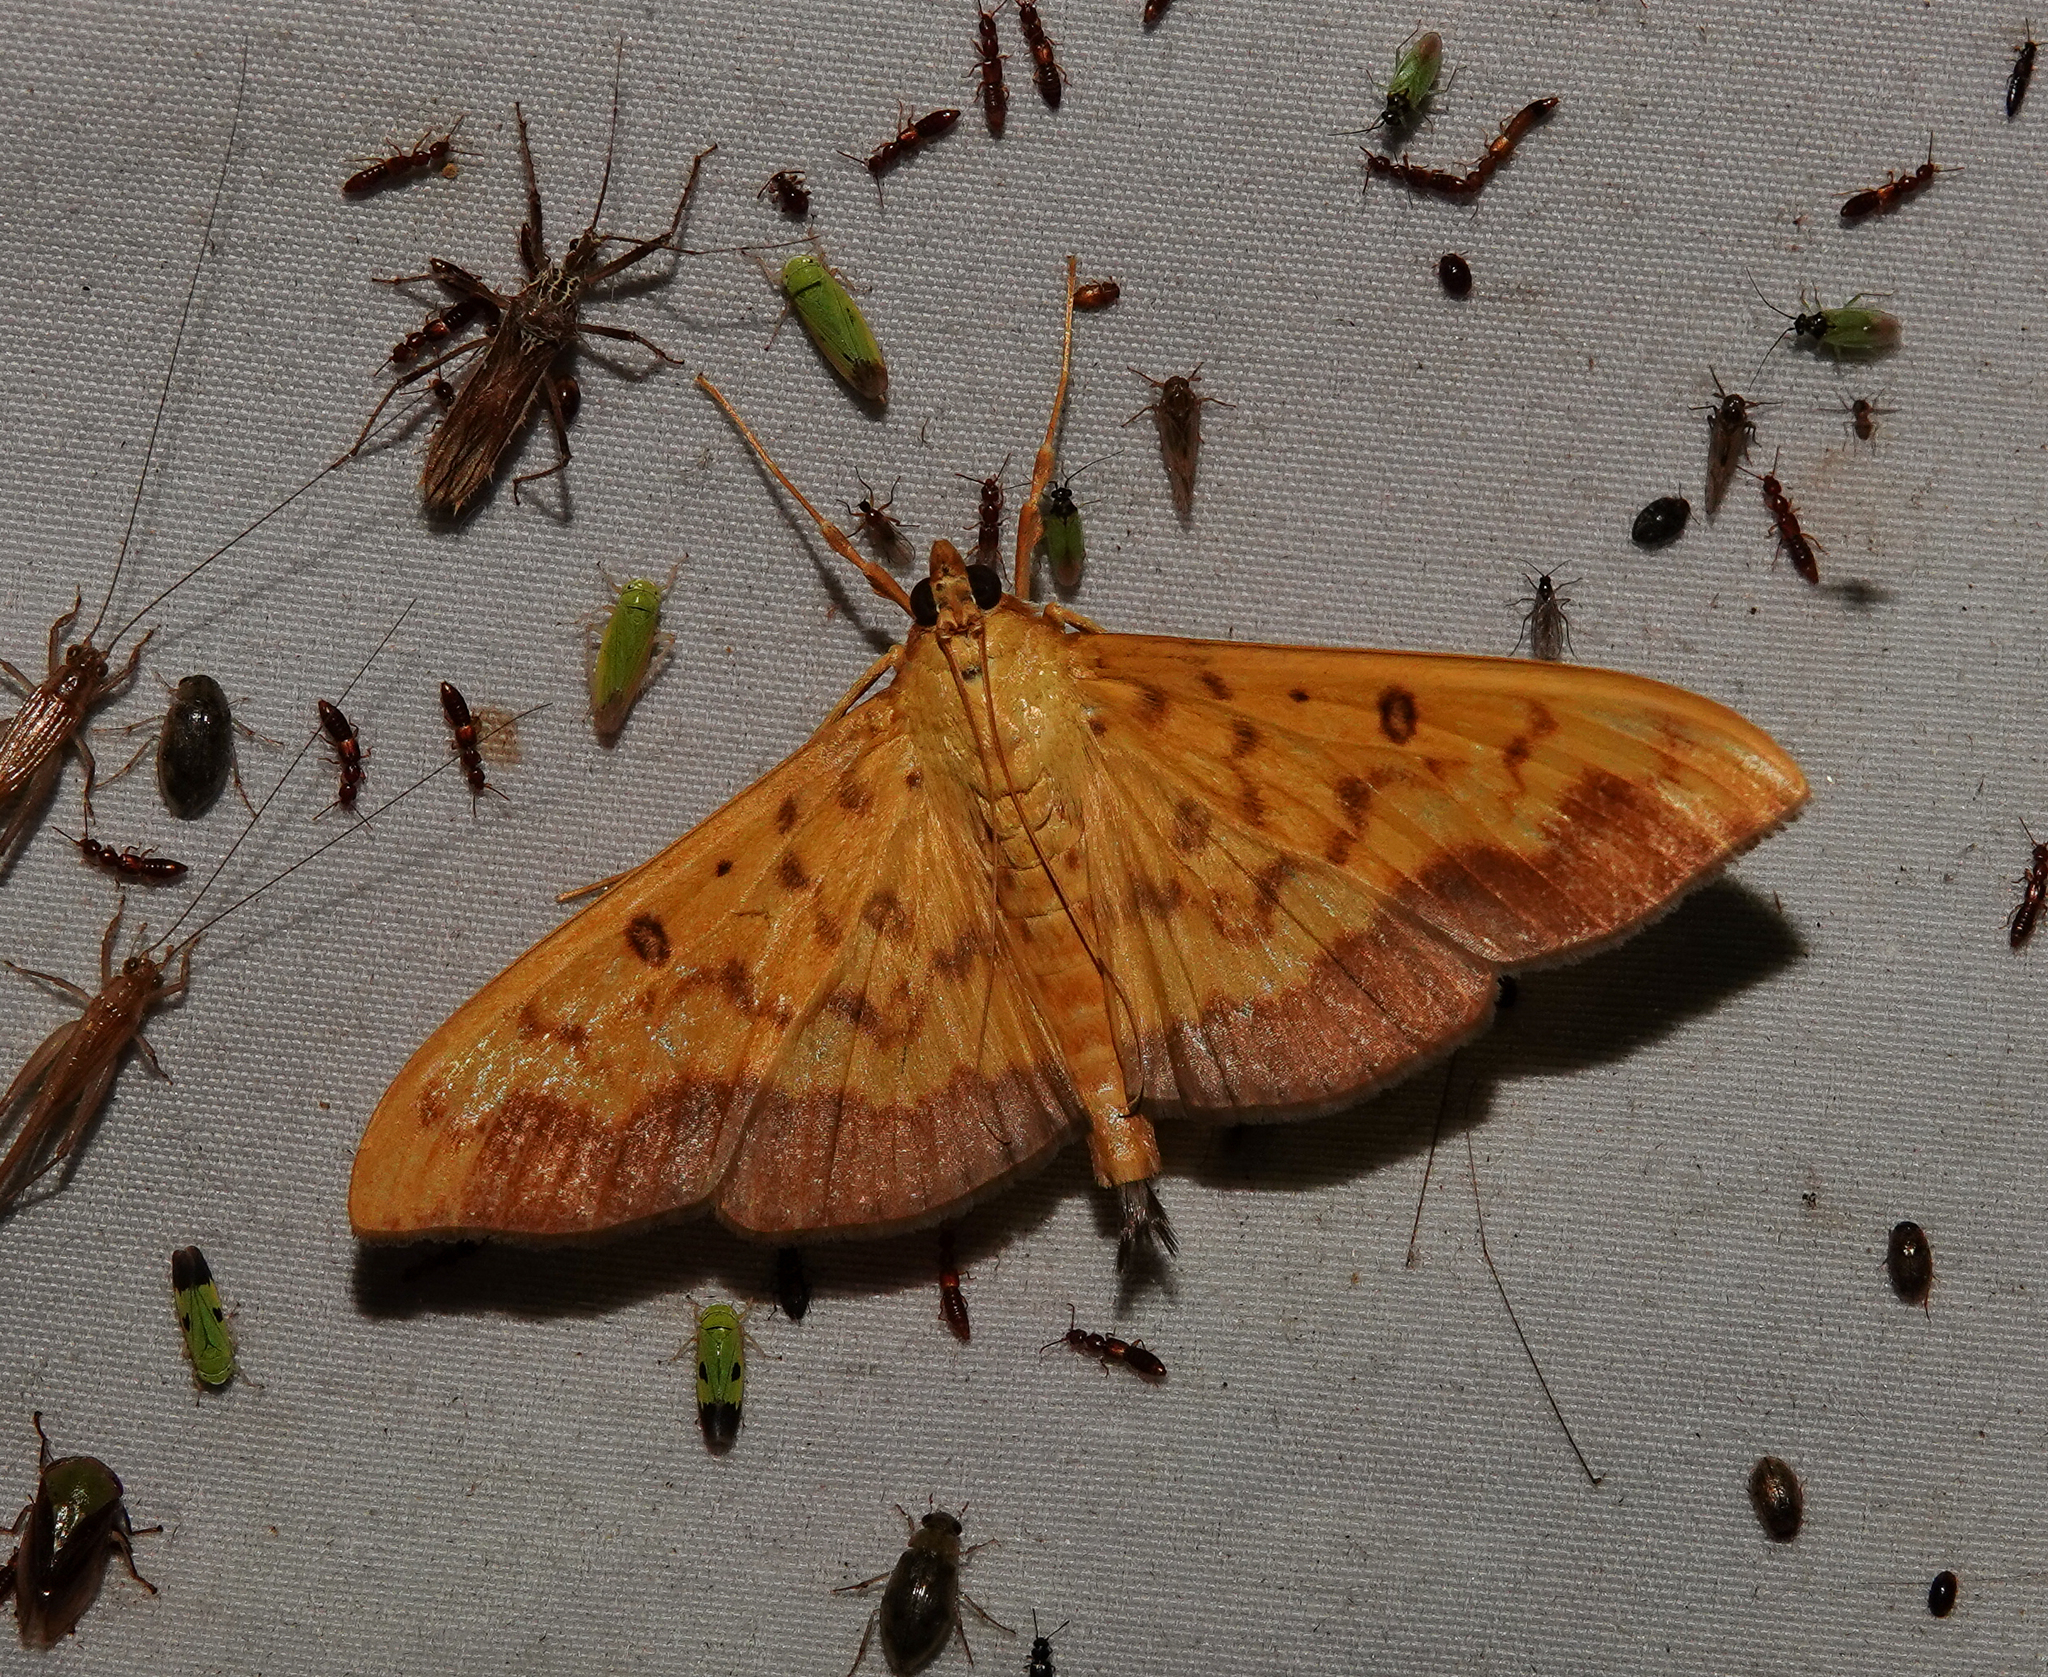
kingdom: Animalia
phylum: Arthropoda
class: Insecta
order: Lepidoptera
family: Crambidae
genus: Botyodes
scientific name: Botyodes asialis
